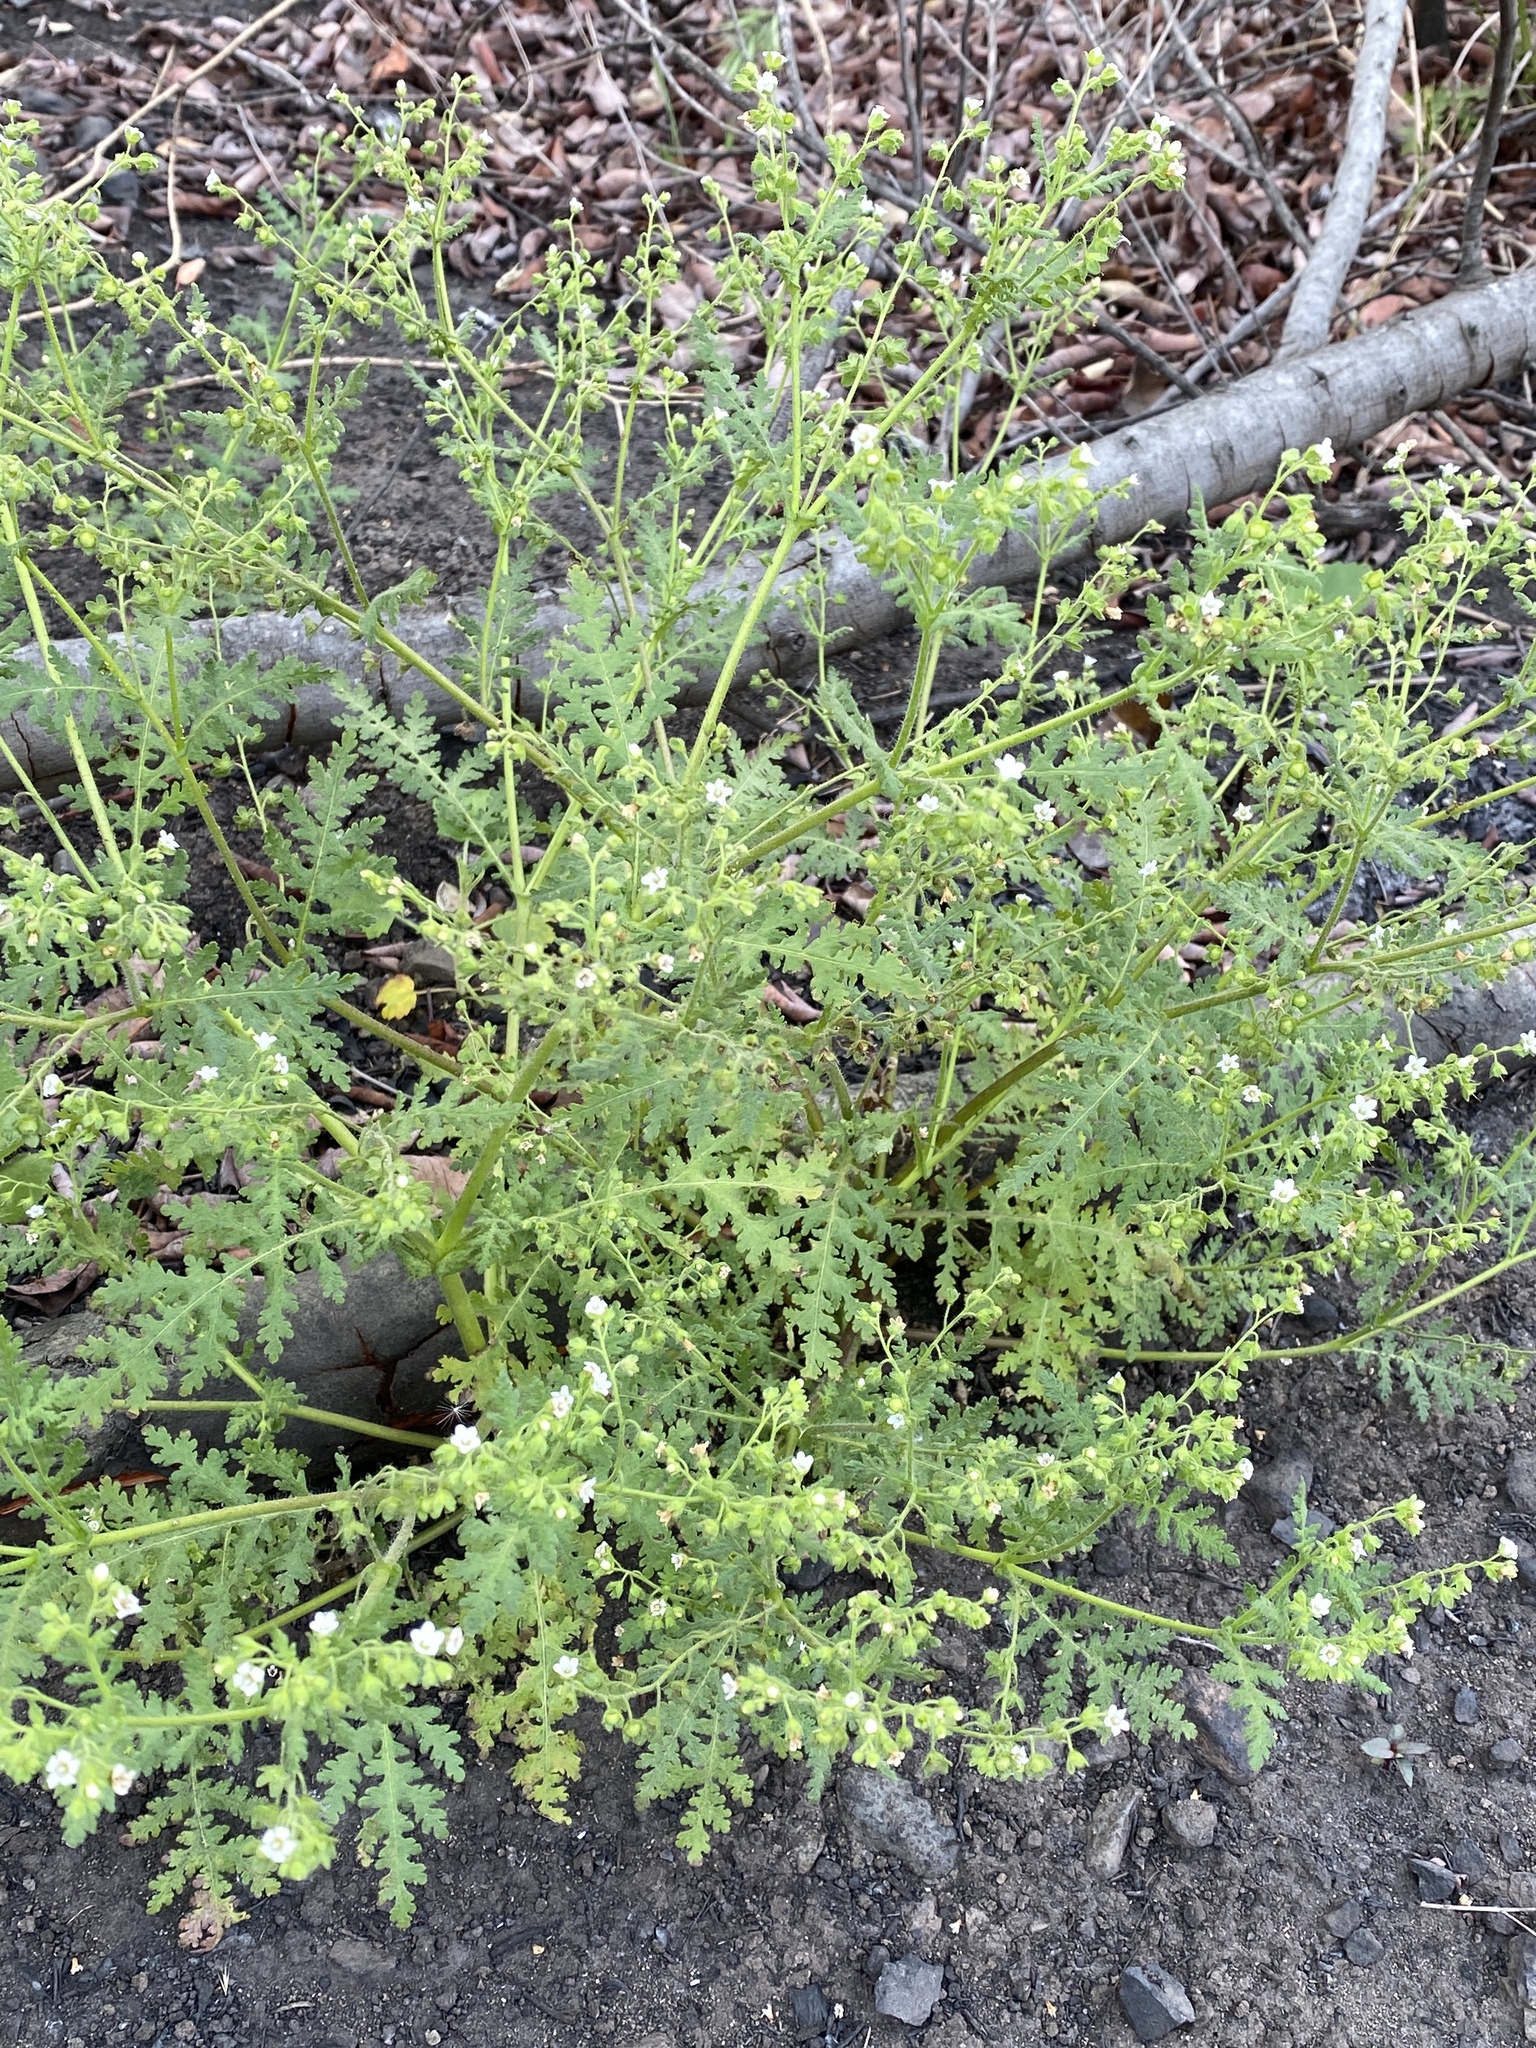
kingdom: Plantae
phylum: Tracheophyta
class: Magnoliopsida
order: Boraginales
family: Hydrophyllaceae
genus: Eucrypta
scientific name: Eucrypta chrysanthemifolia
